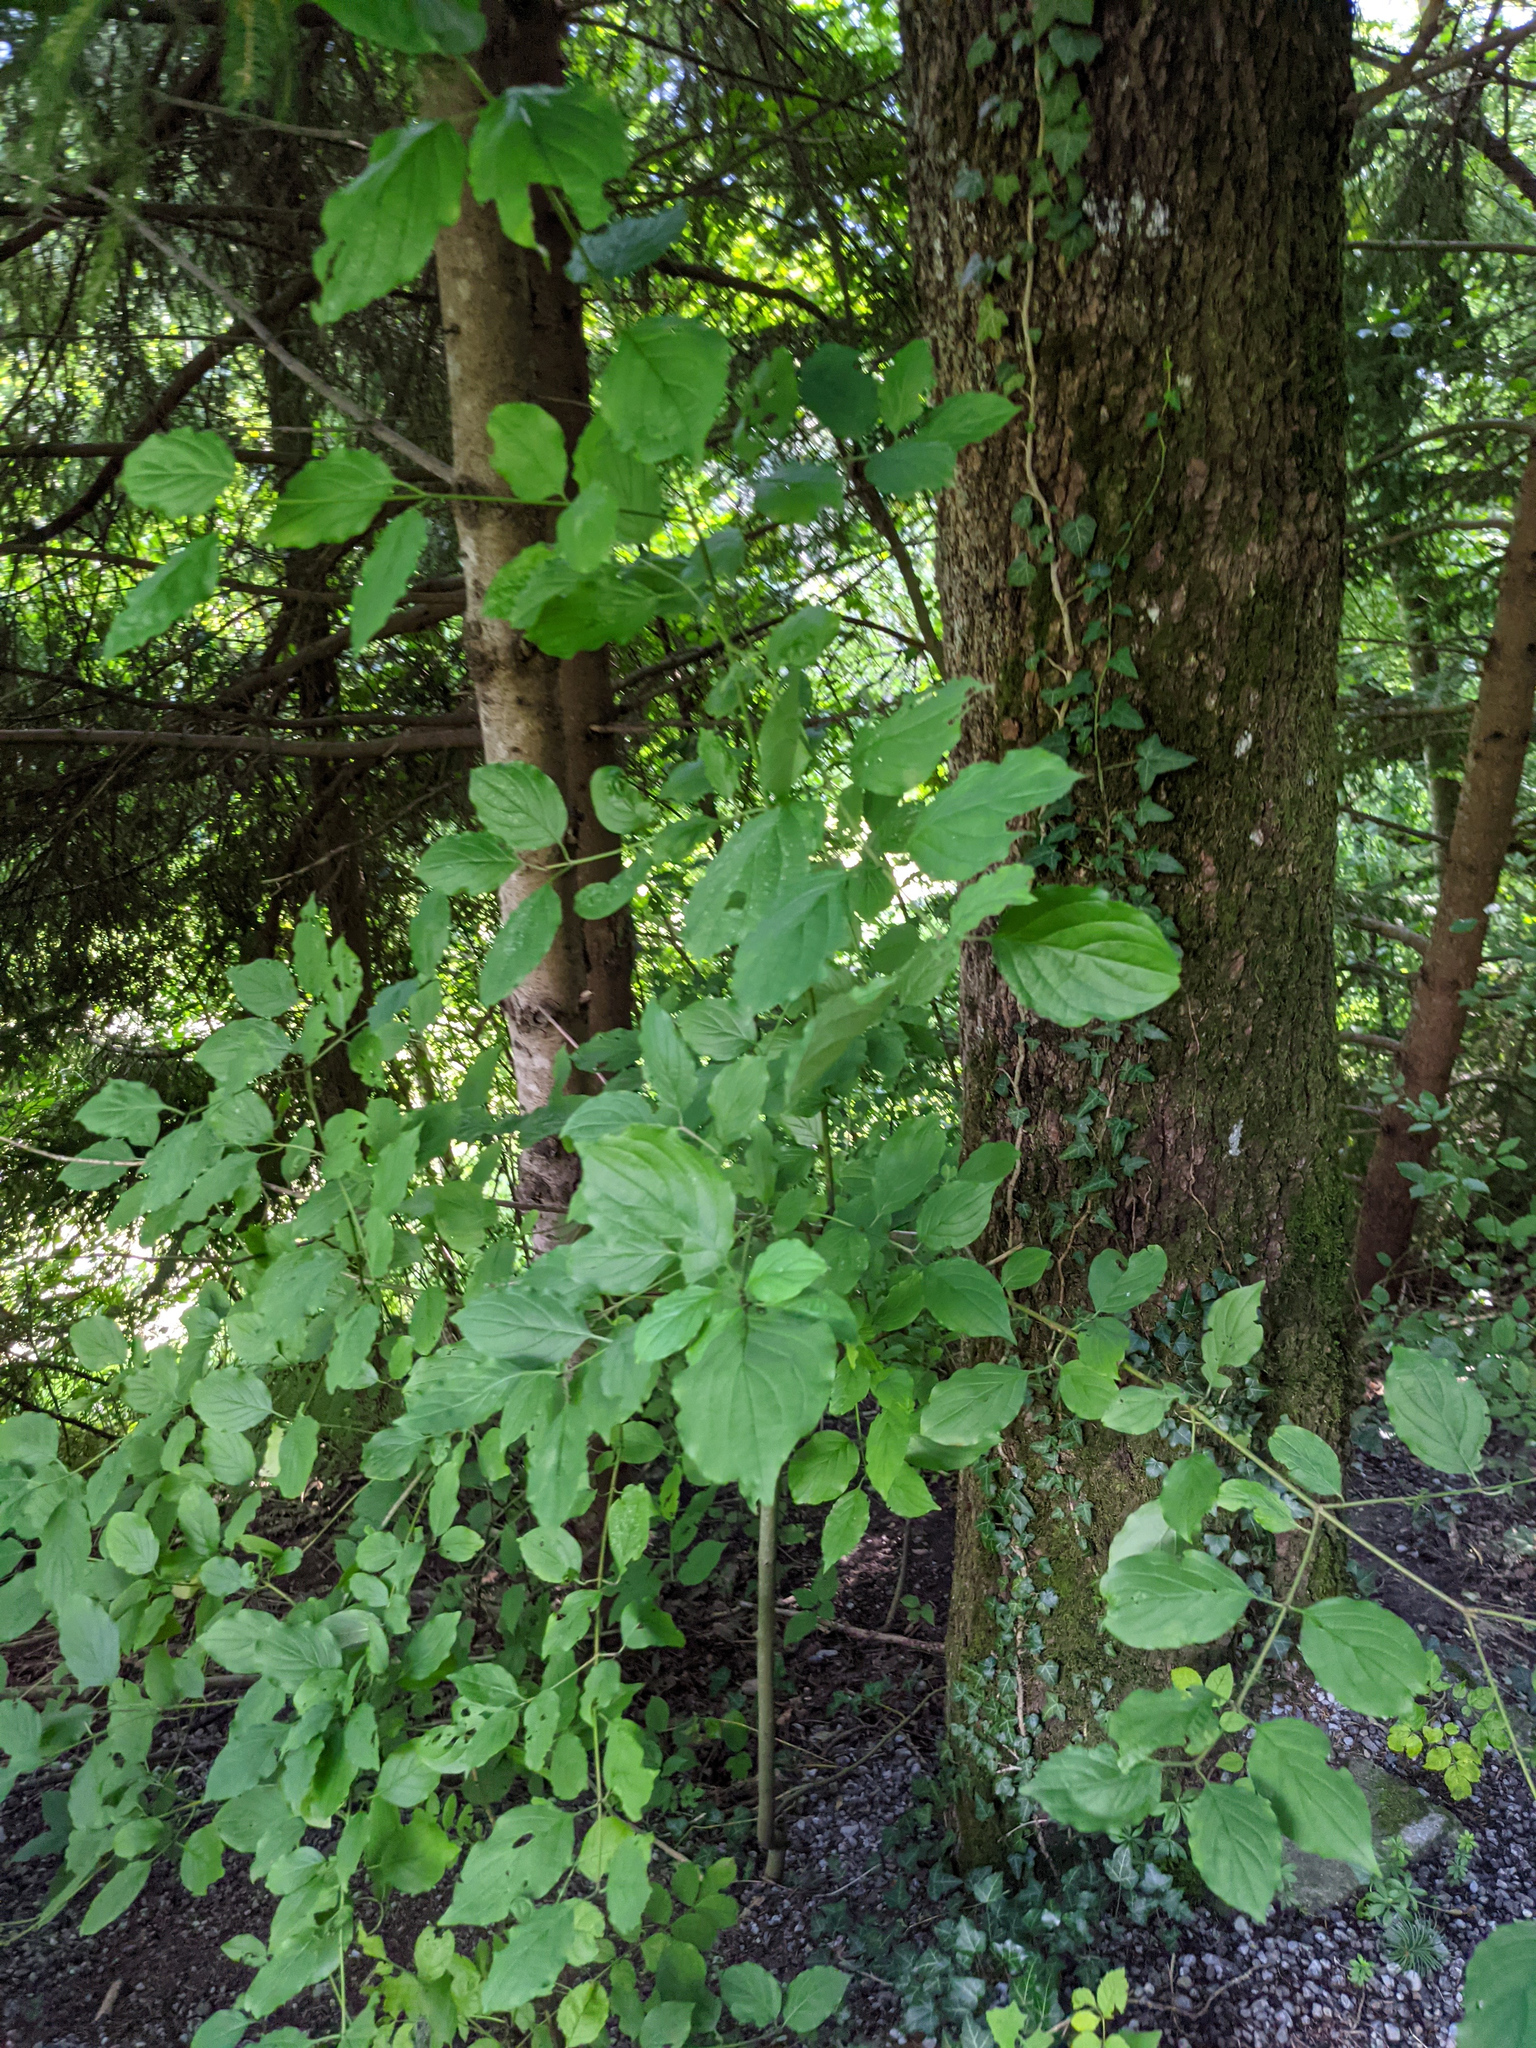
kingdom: Plantae
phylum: Tracheophyta
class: Magnoliopsida
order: Cornales
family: Cornaceae
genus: Cornus
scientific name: Cornus sanguinea
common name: Dogwood
